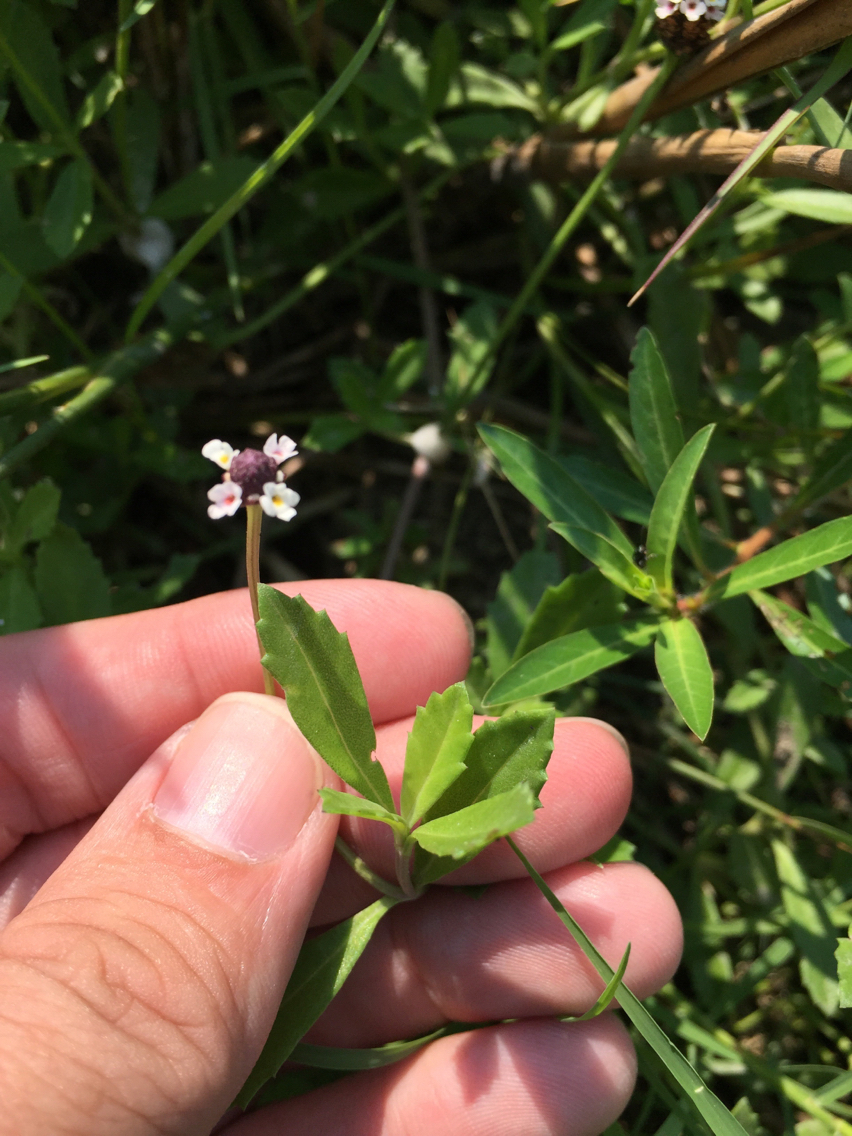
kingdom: Plantae
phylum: Tracheophyta
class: Magnoliopsida
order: Lamiales
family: Verbenaceae
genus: Phyla
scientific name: Phyla nodiflora
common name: Frogfruit
